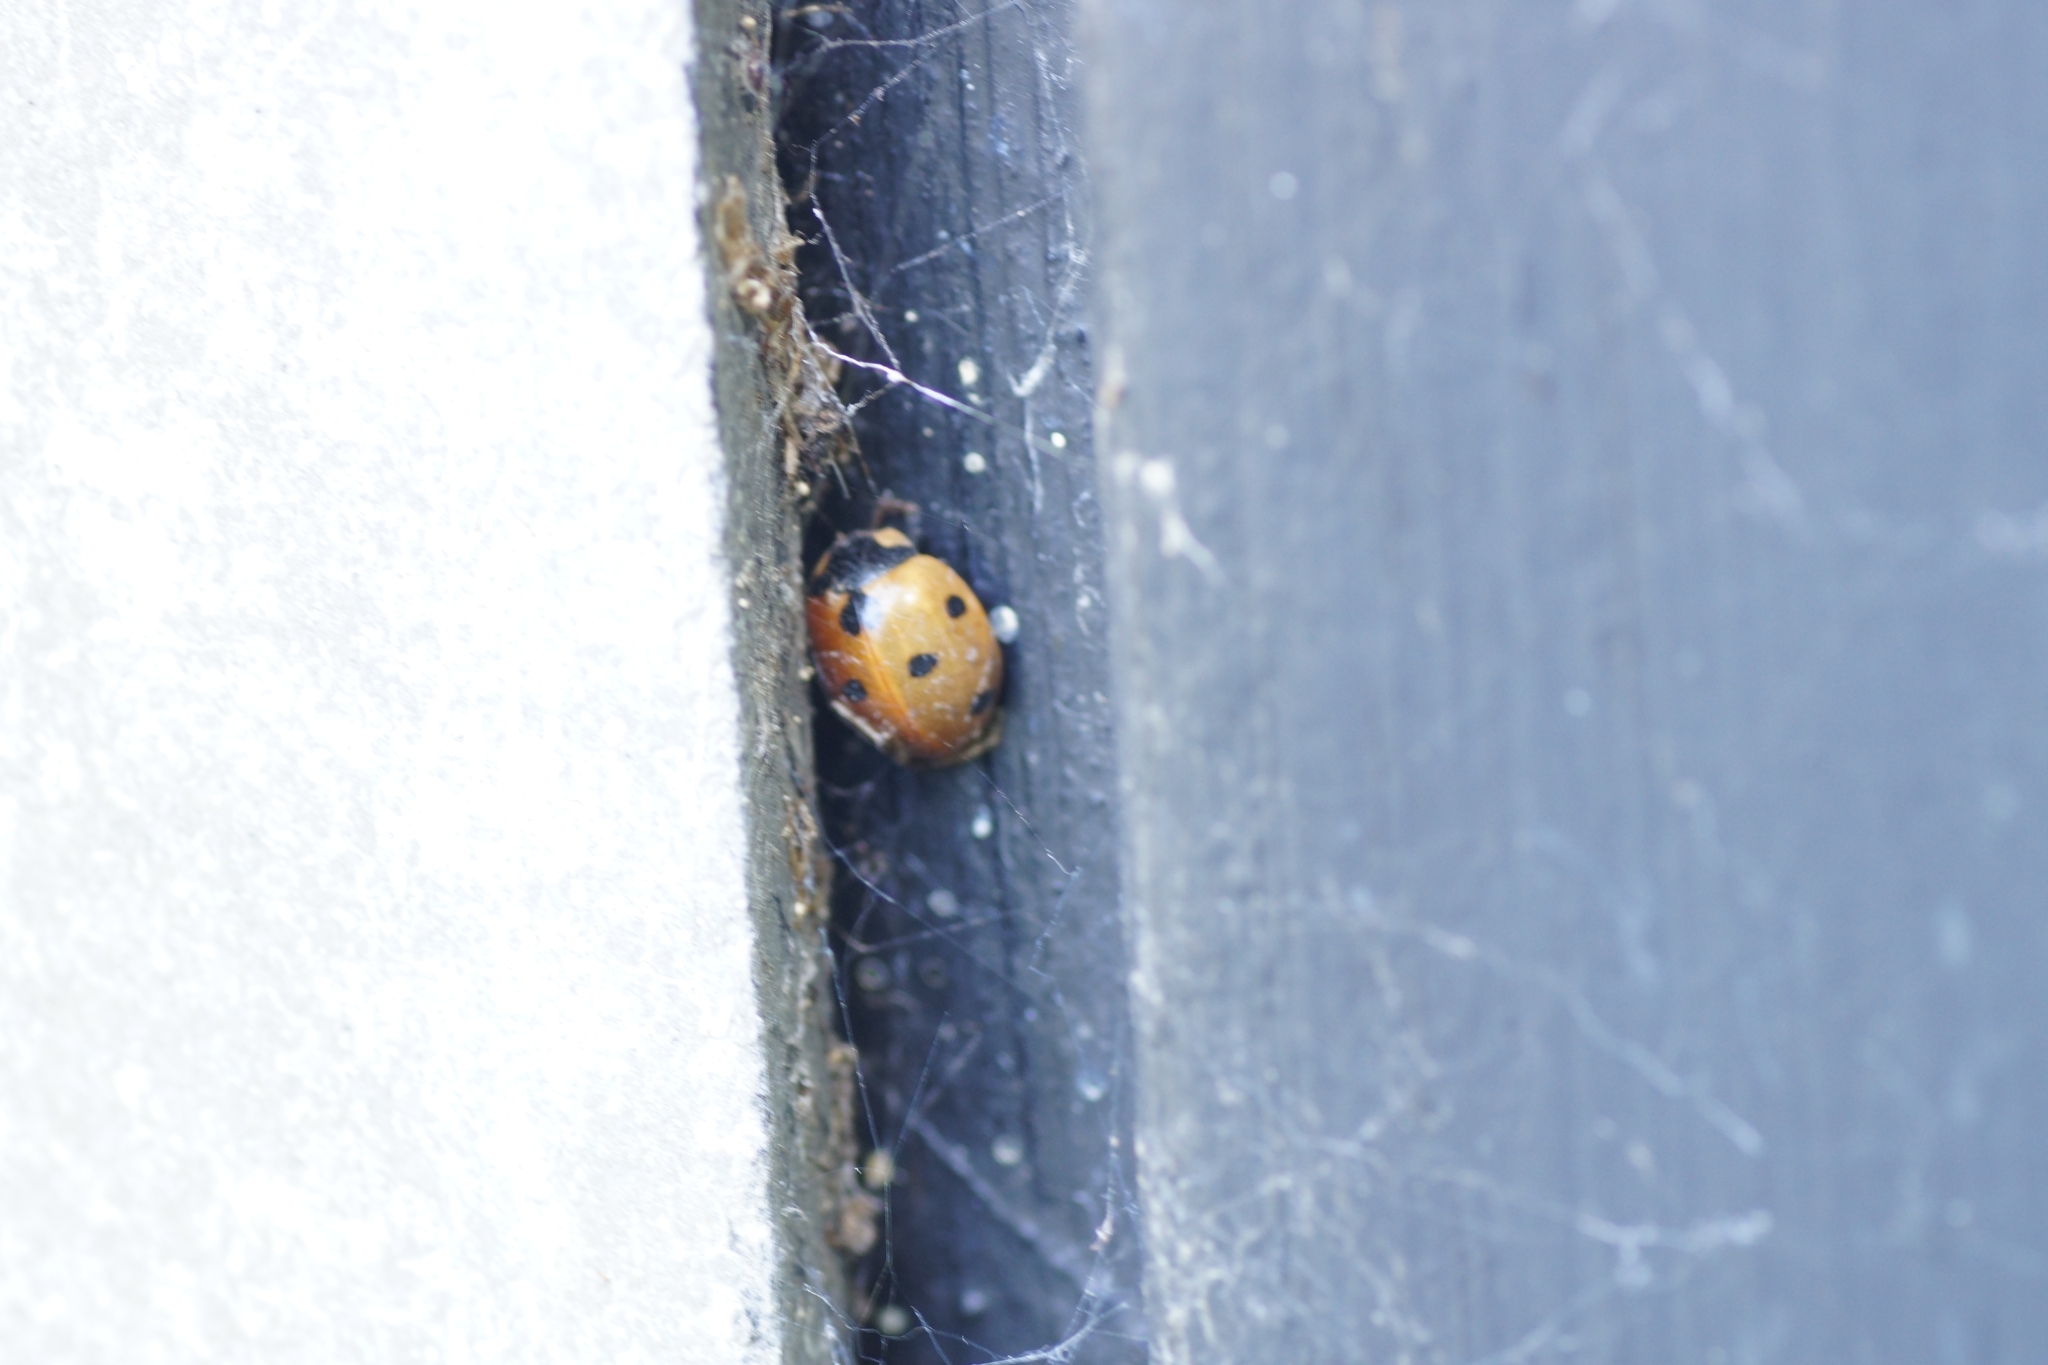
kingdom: Animalia
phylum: Arthropoda
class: Insecta
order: Coleoptera
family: Coccinellidae
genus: Coccinella
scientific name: Coccinella septempunctata
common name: Sevenspotted lady beetle
